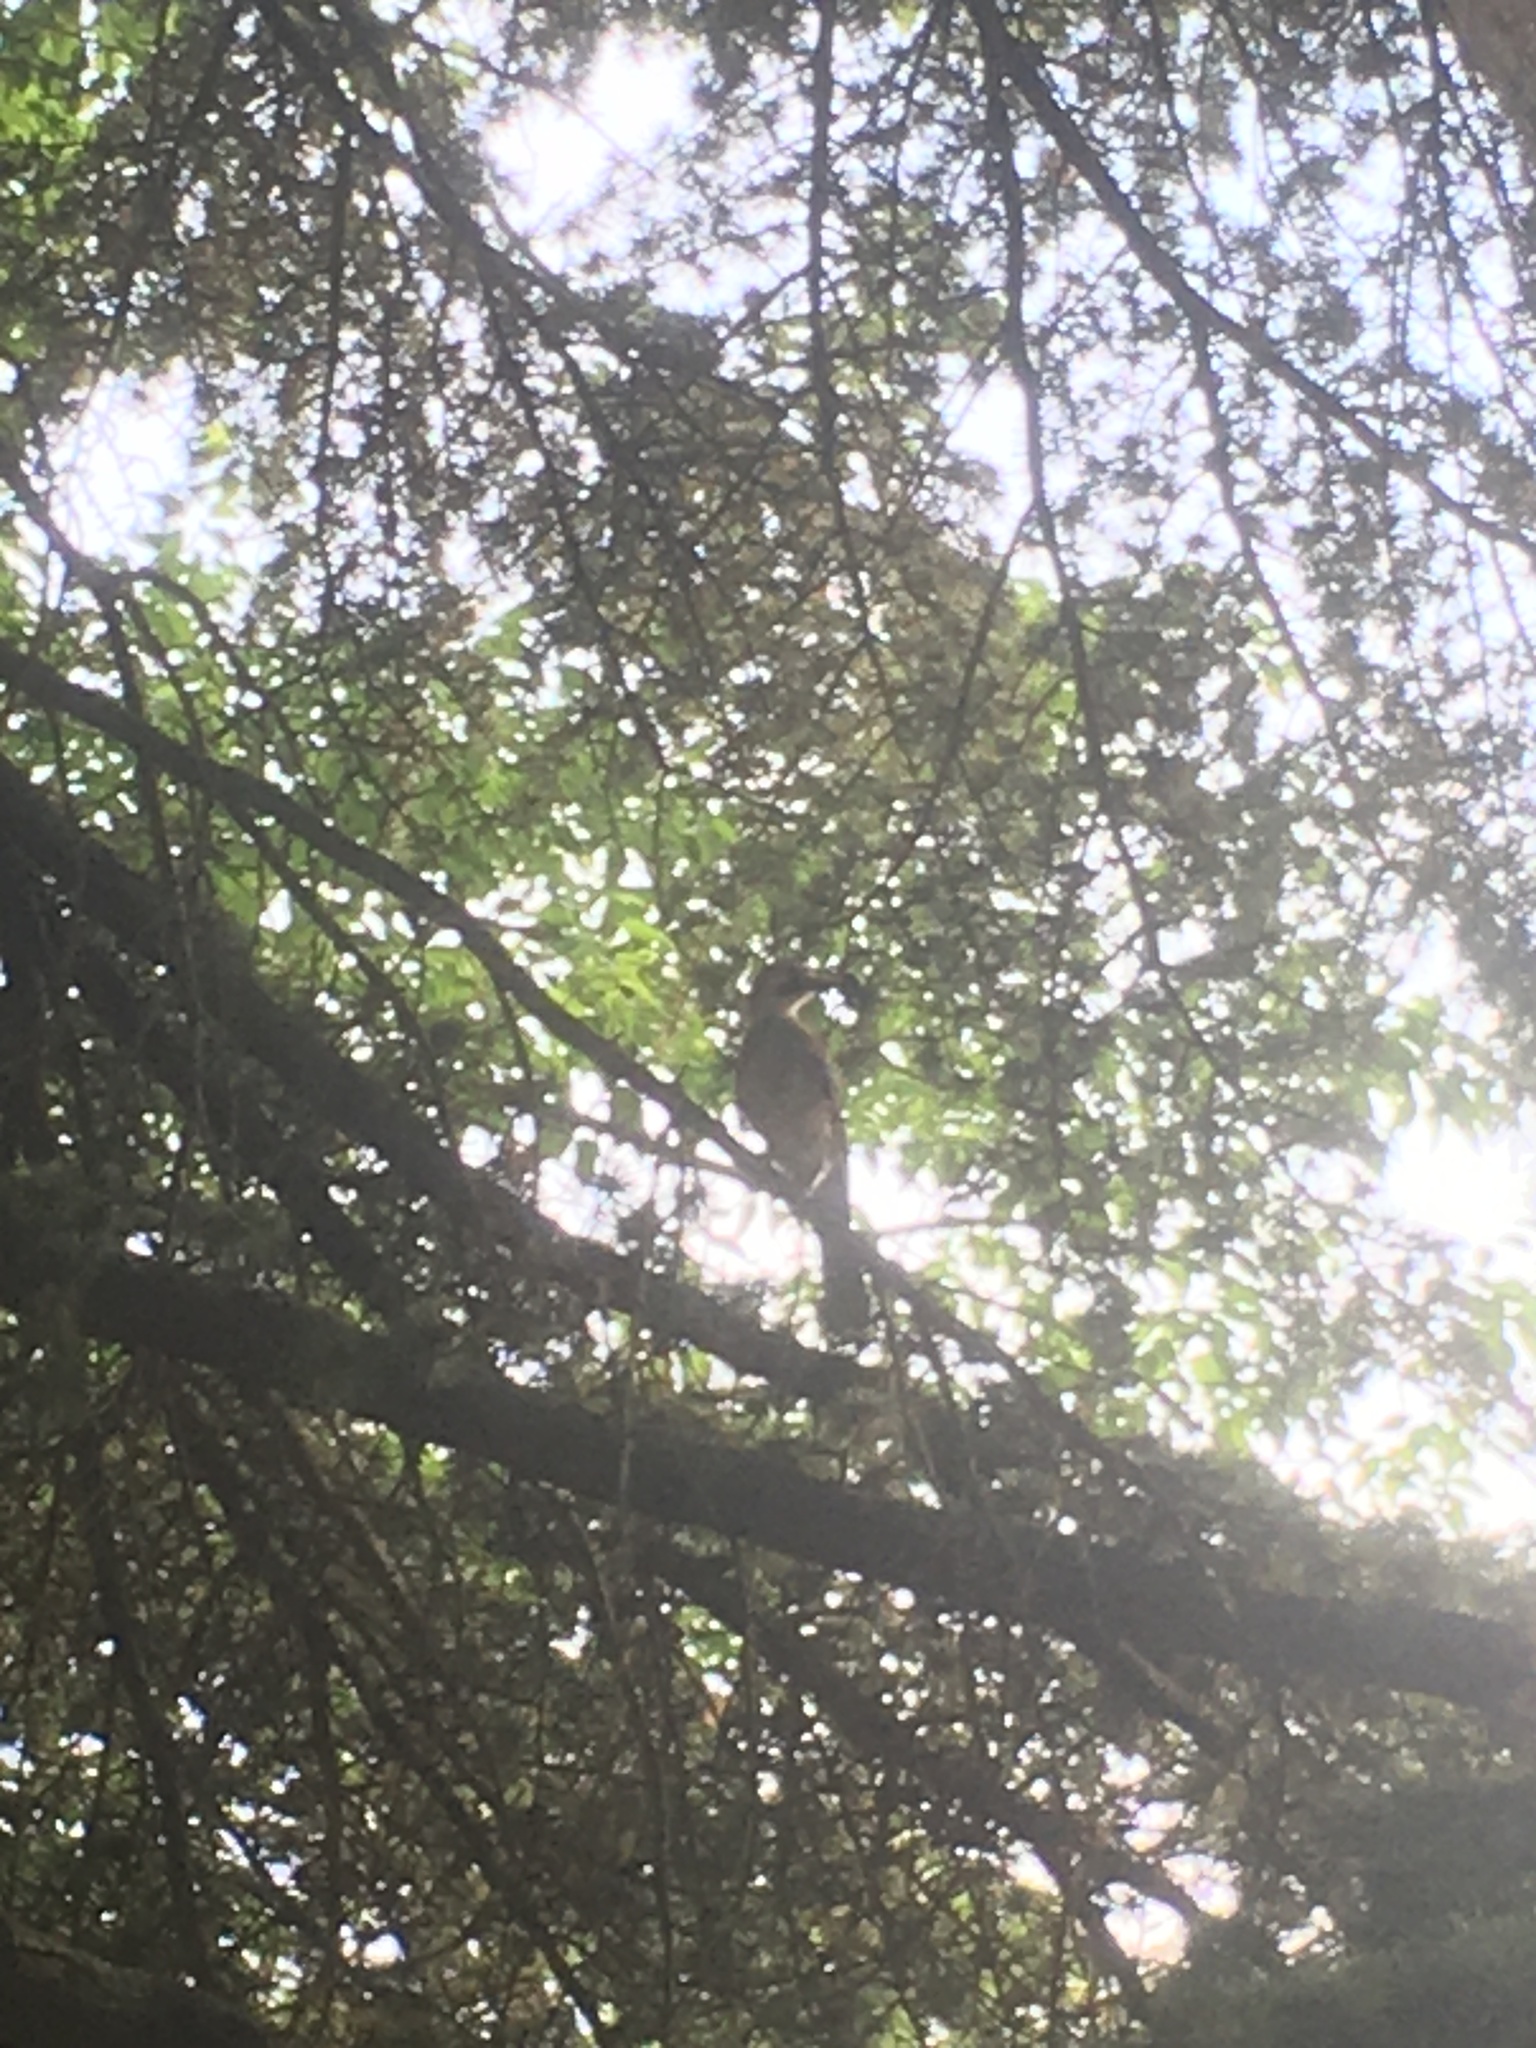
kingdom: Animalia
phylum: Chordata
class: Aves
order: Passeriformes
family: Corvidae
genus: Garrulus
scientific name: Garrulus glandarius
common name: Eurasian jay
